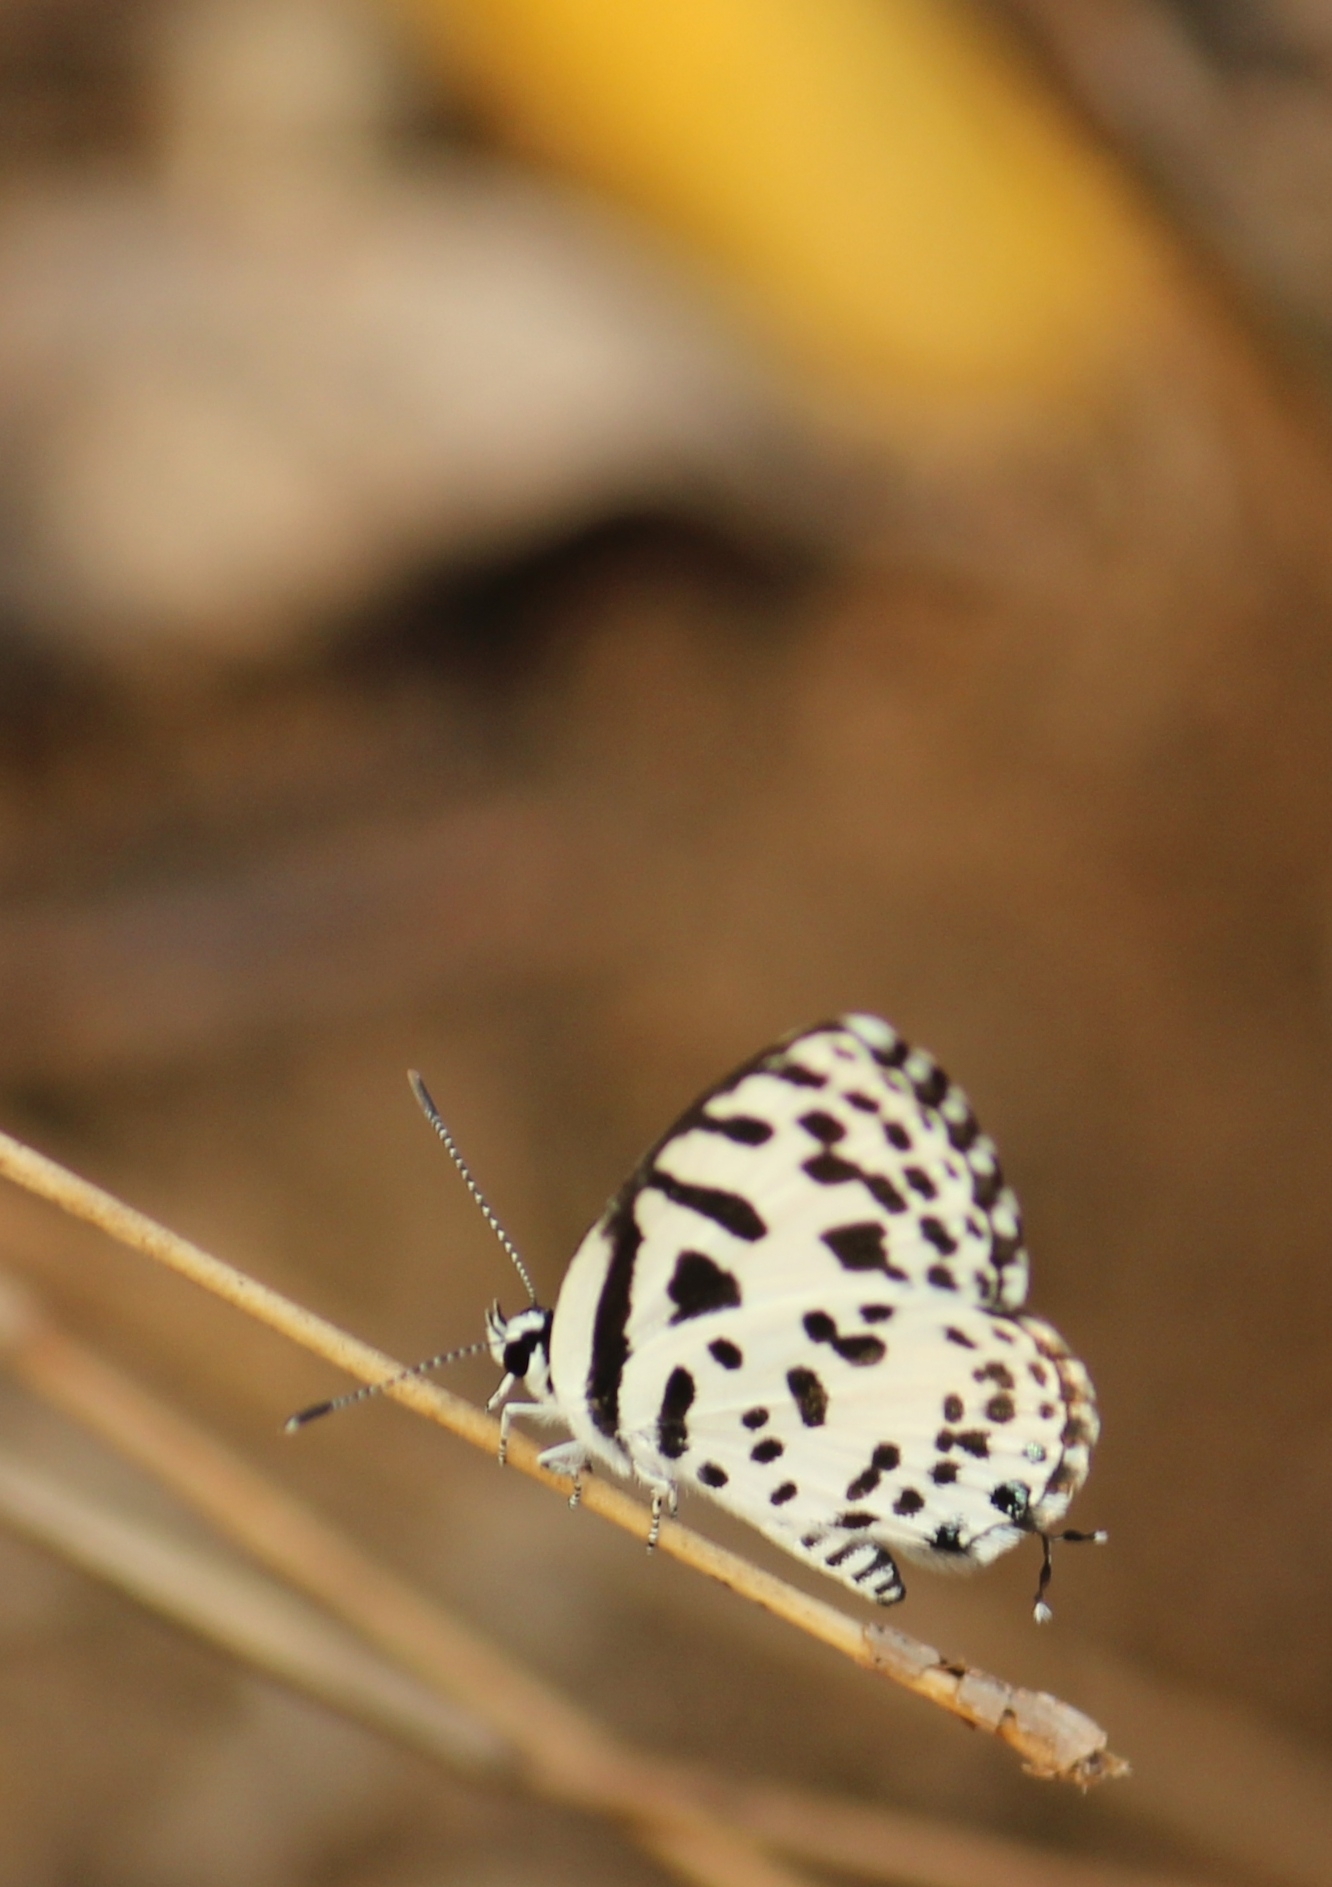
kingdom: Animalia
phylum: Arthropoda
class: Insecta
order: Lepidoptera
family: Lycaenidae
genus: Castalius
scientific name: Castalius rosimon
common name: Common pierrot
